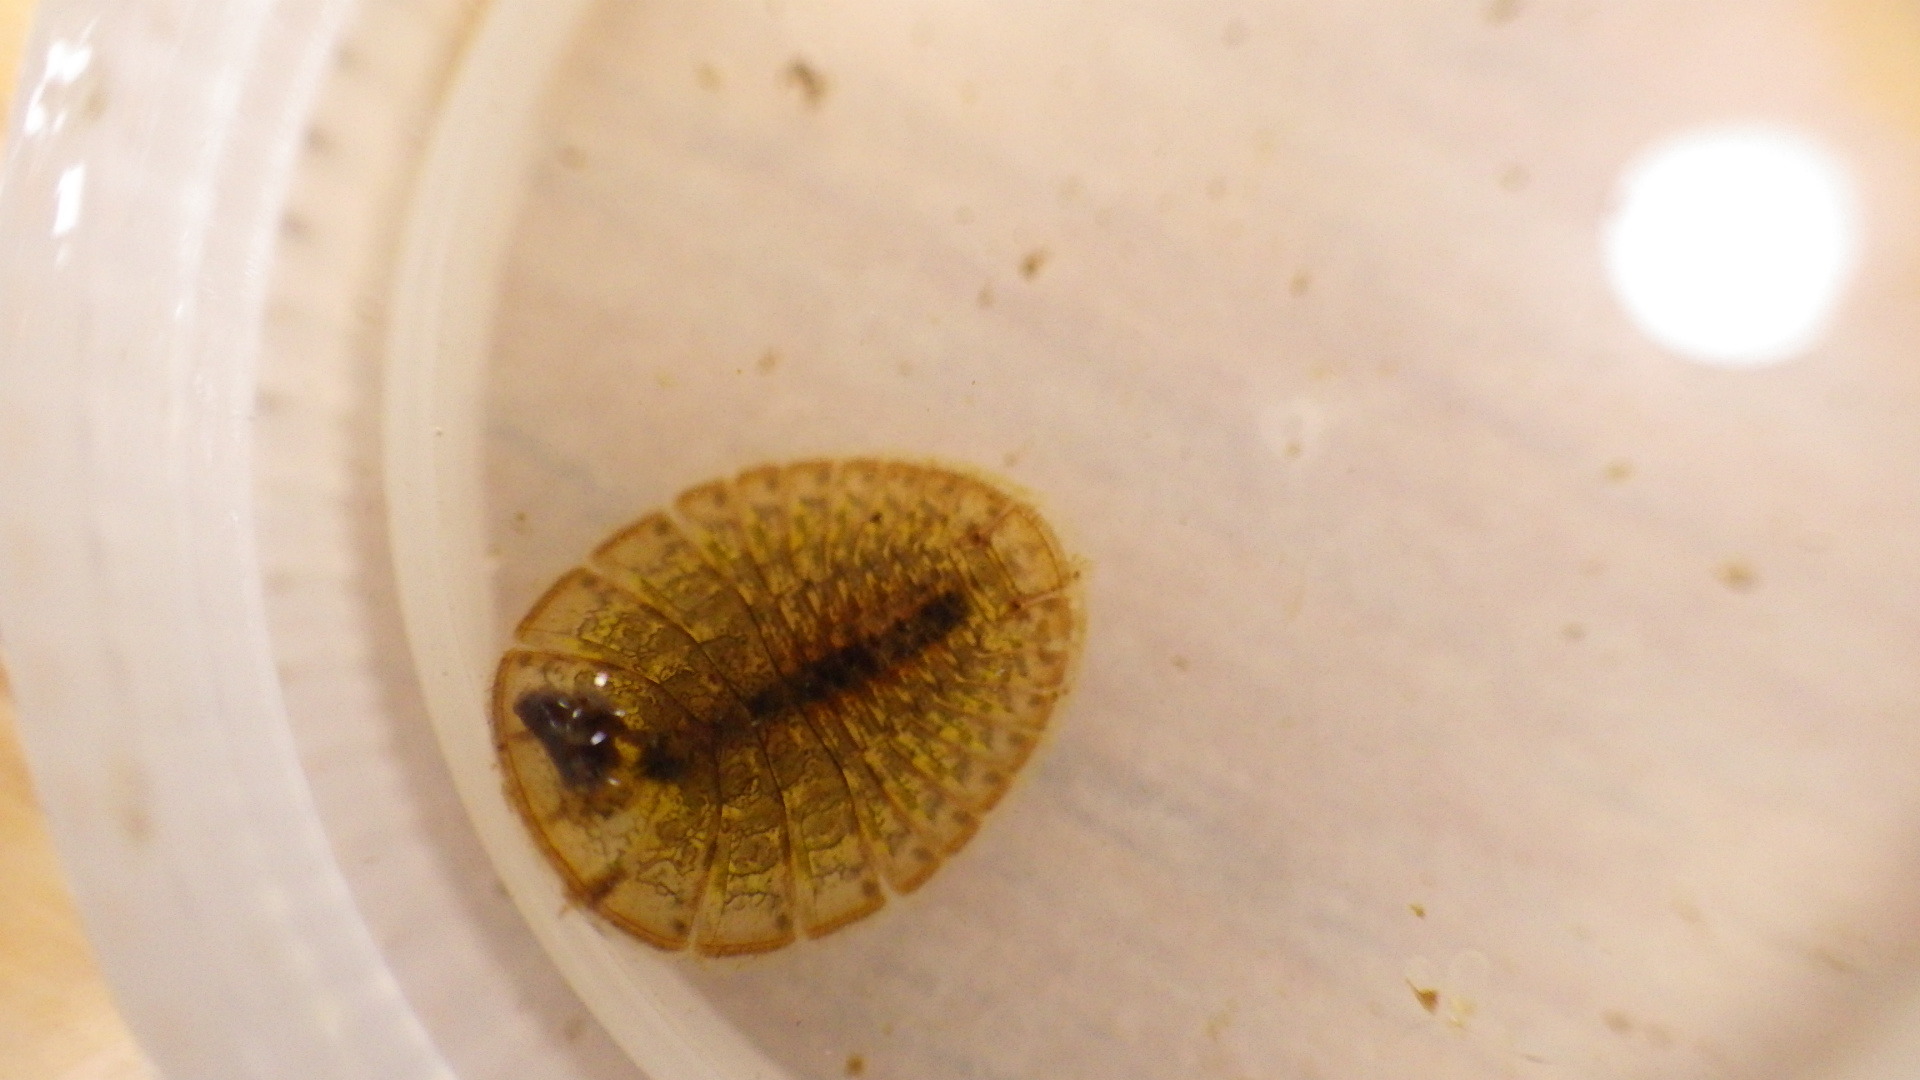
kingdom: Animalia
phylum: Arthropoda
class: Insecta
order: Coleoptera
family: Psephenidae
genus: Psephenus
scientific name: Psephenus herricki
